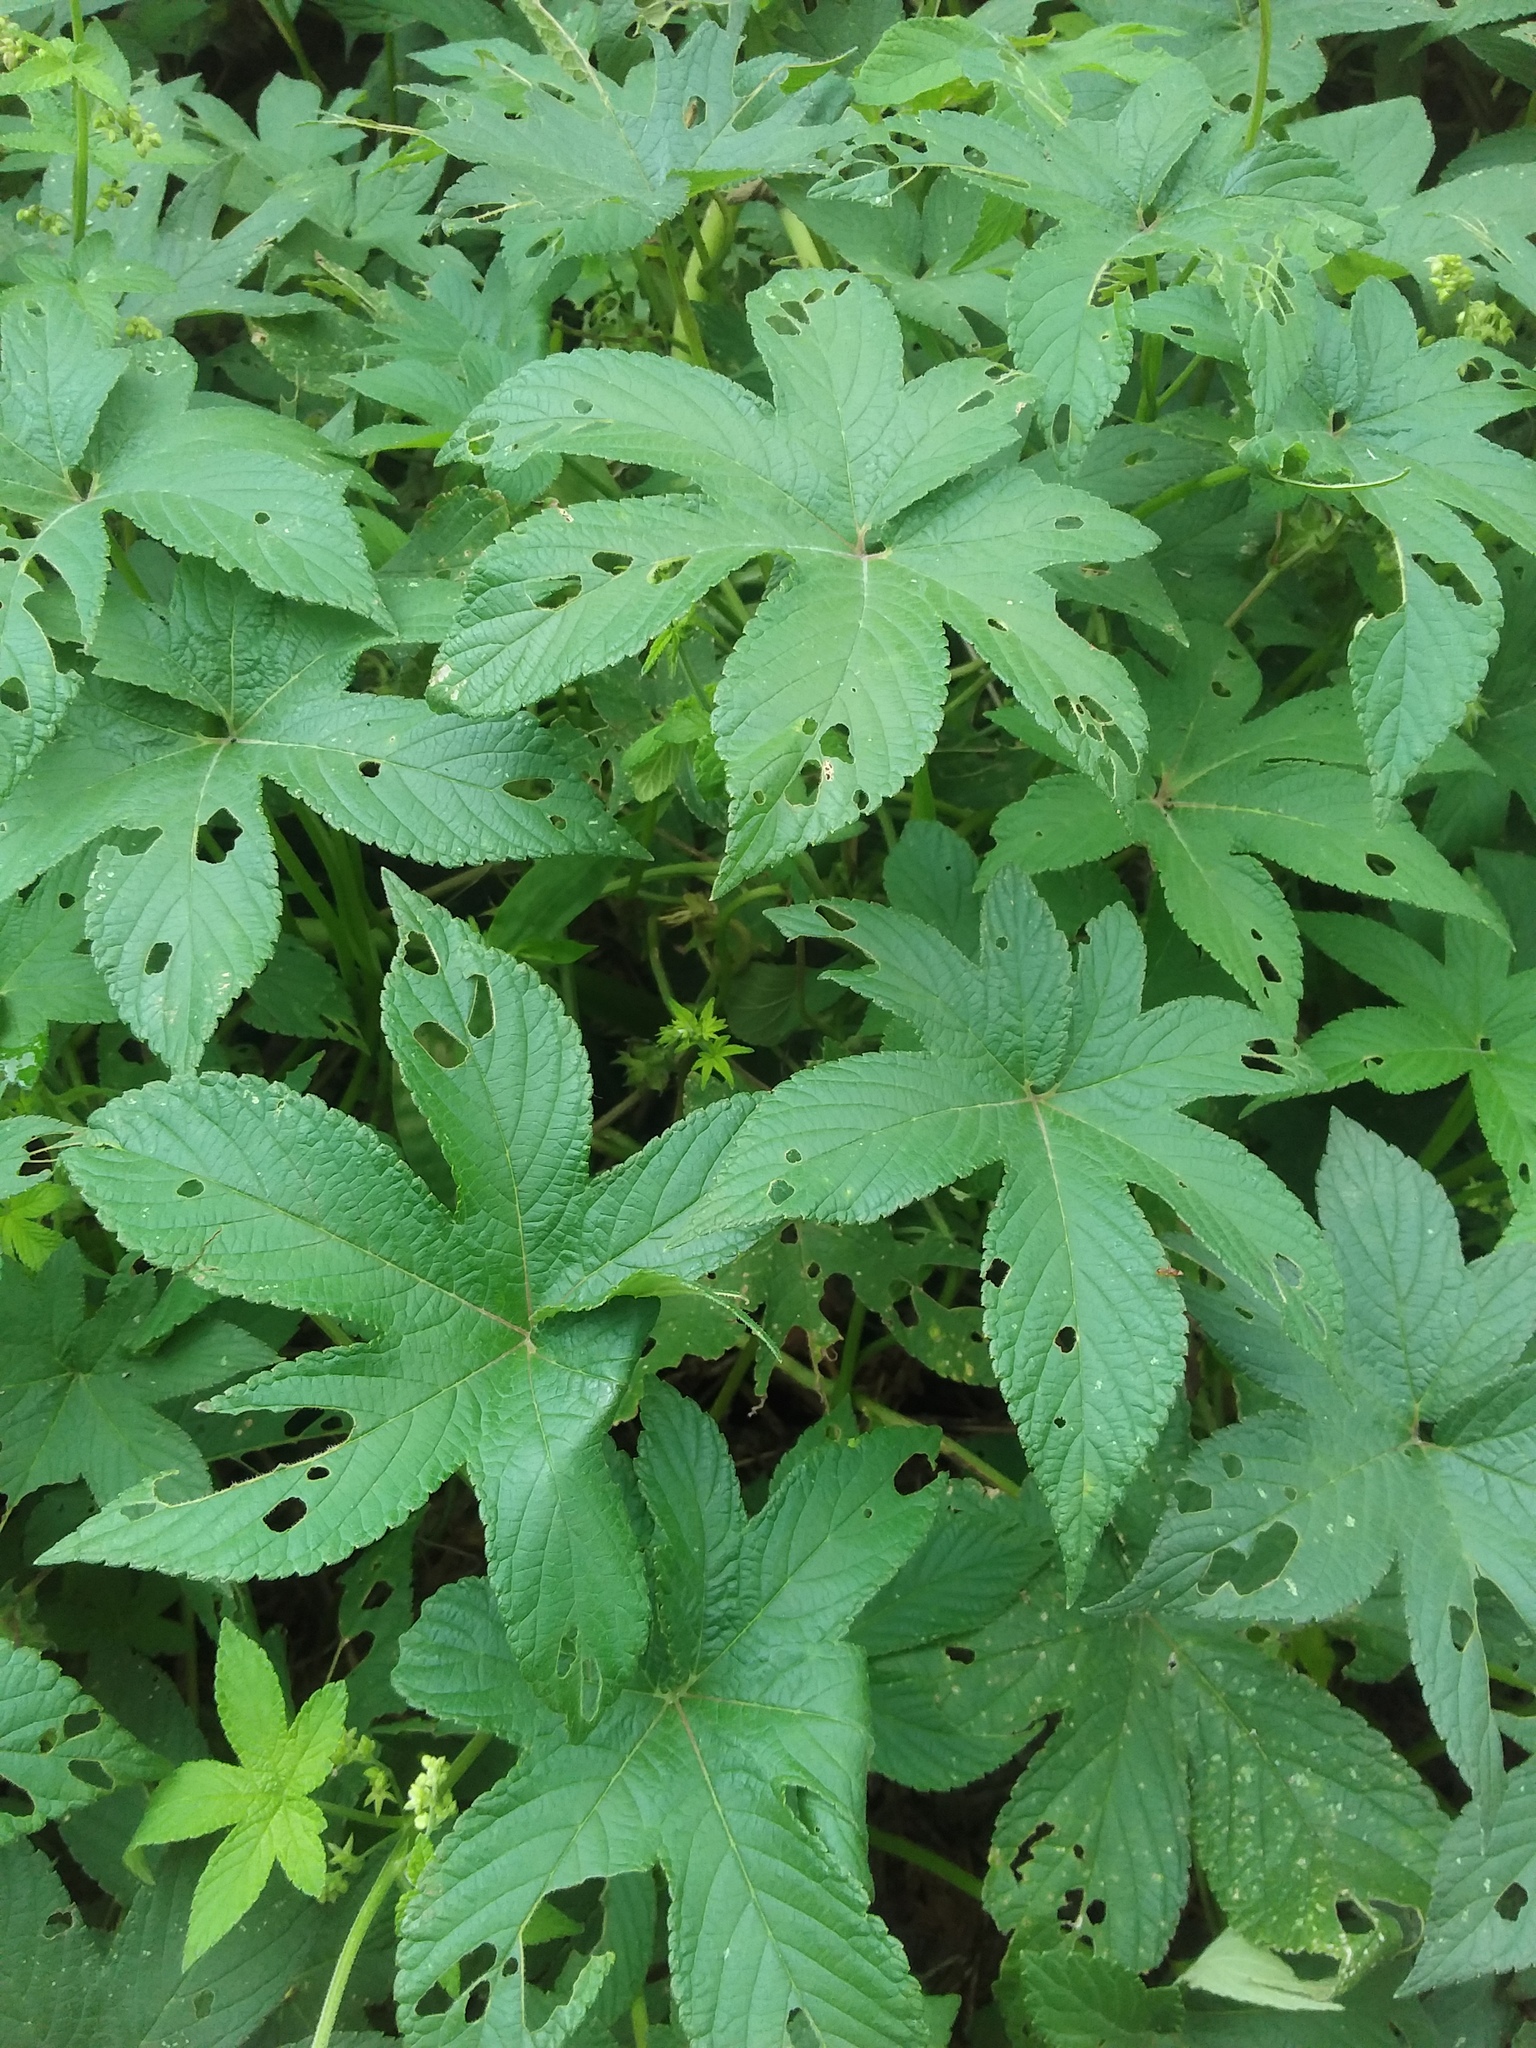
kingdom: Plantae
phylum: Tracheophyta
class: Magnoliopsida
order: Rosales
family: Cannabaceae
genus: Humulus
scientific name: Humulus scandens
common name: Japanese hop
